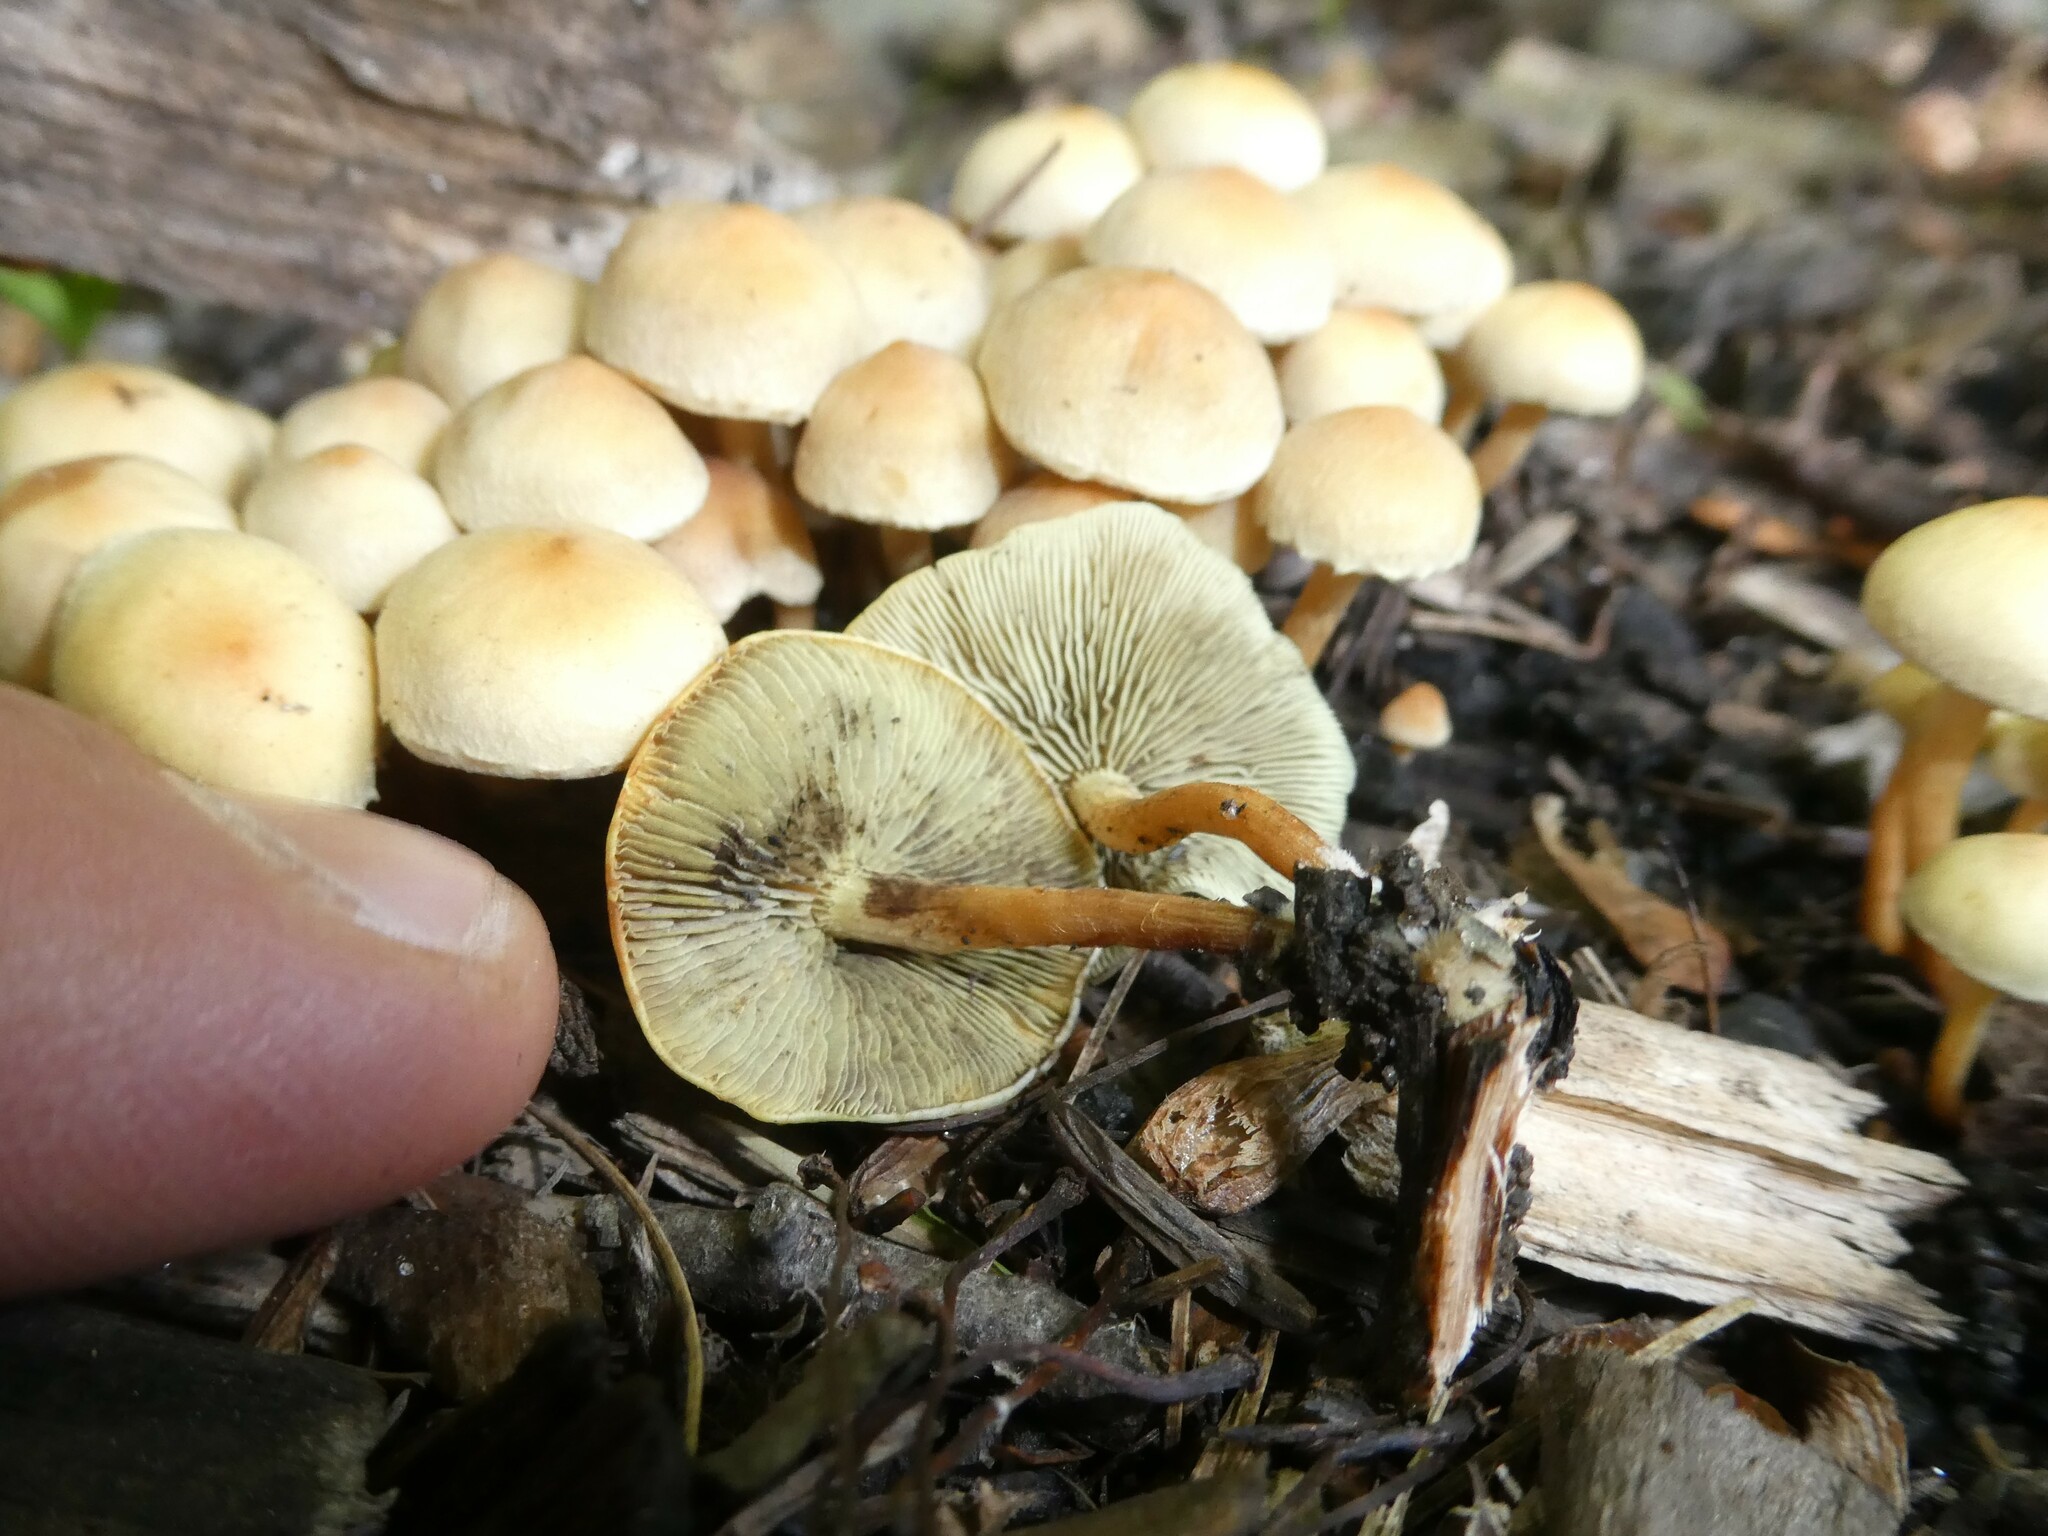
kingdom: Fungi
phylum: Basidiomycota
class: Agaricomycetes
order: Agaricales
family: Strophariaceae
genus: Hypholoma
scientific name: Hypholoma fasciculare
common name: Sulphur tuft
